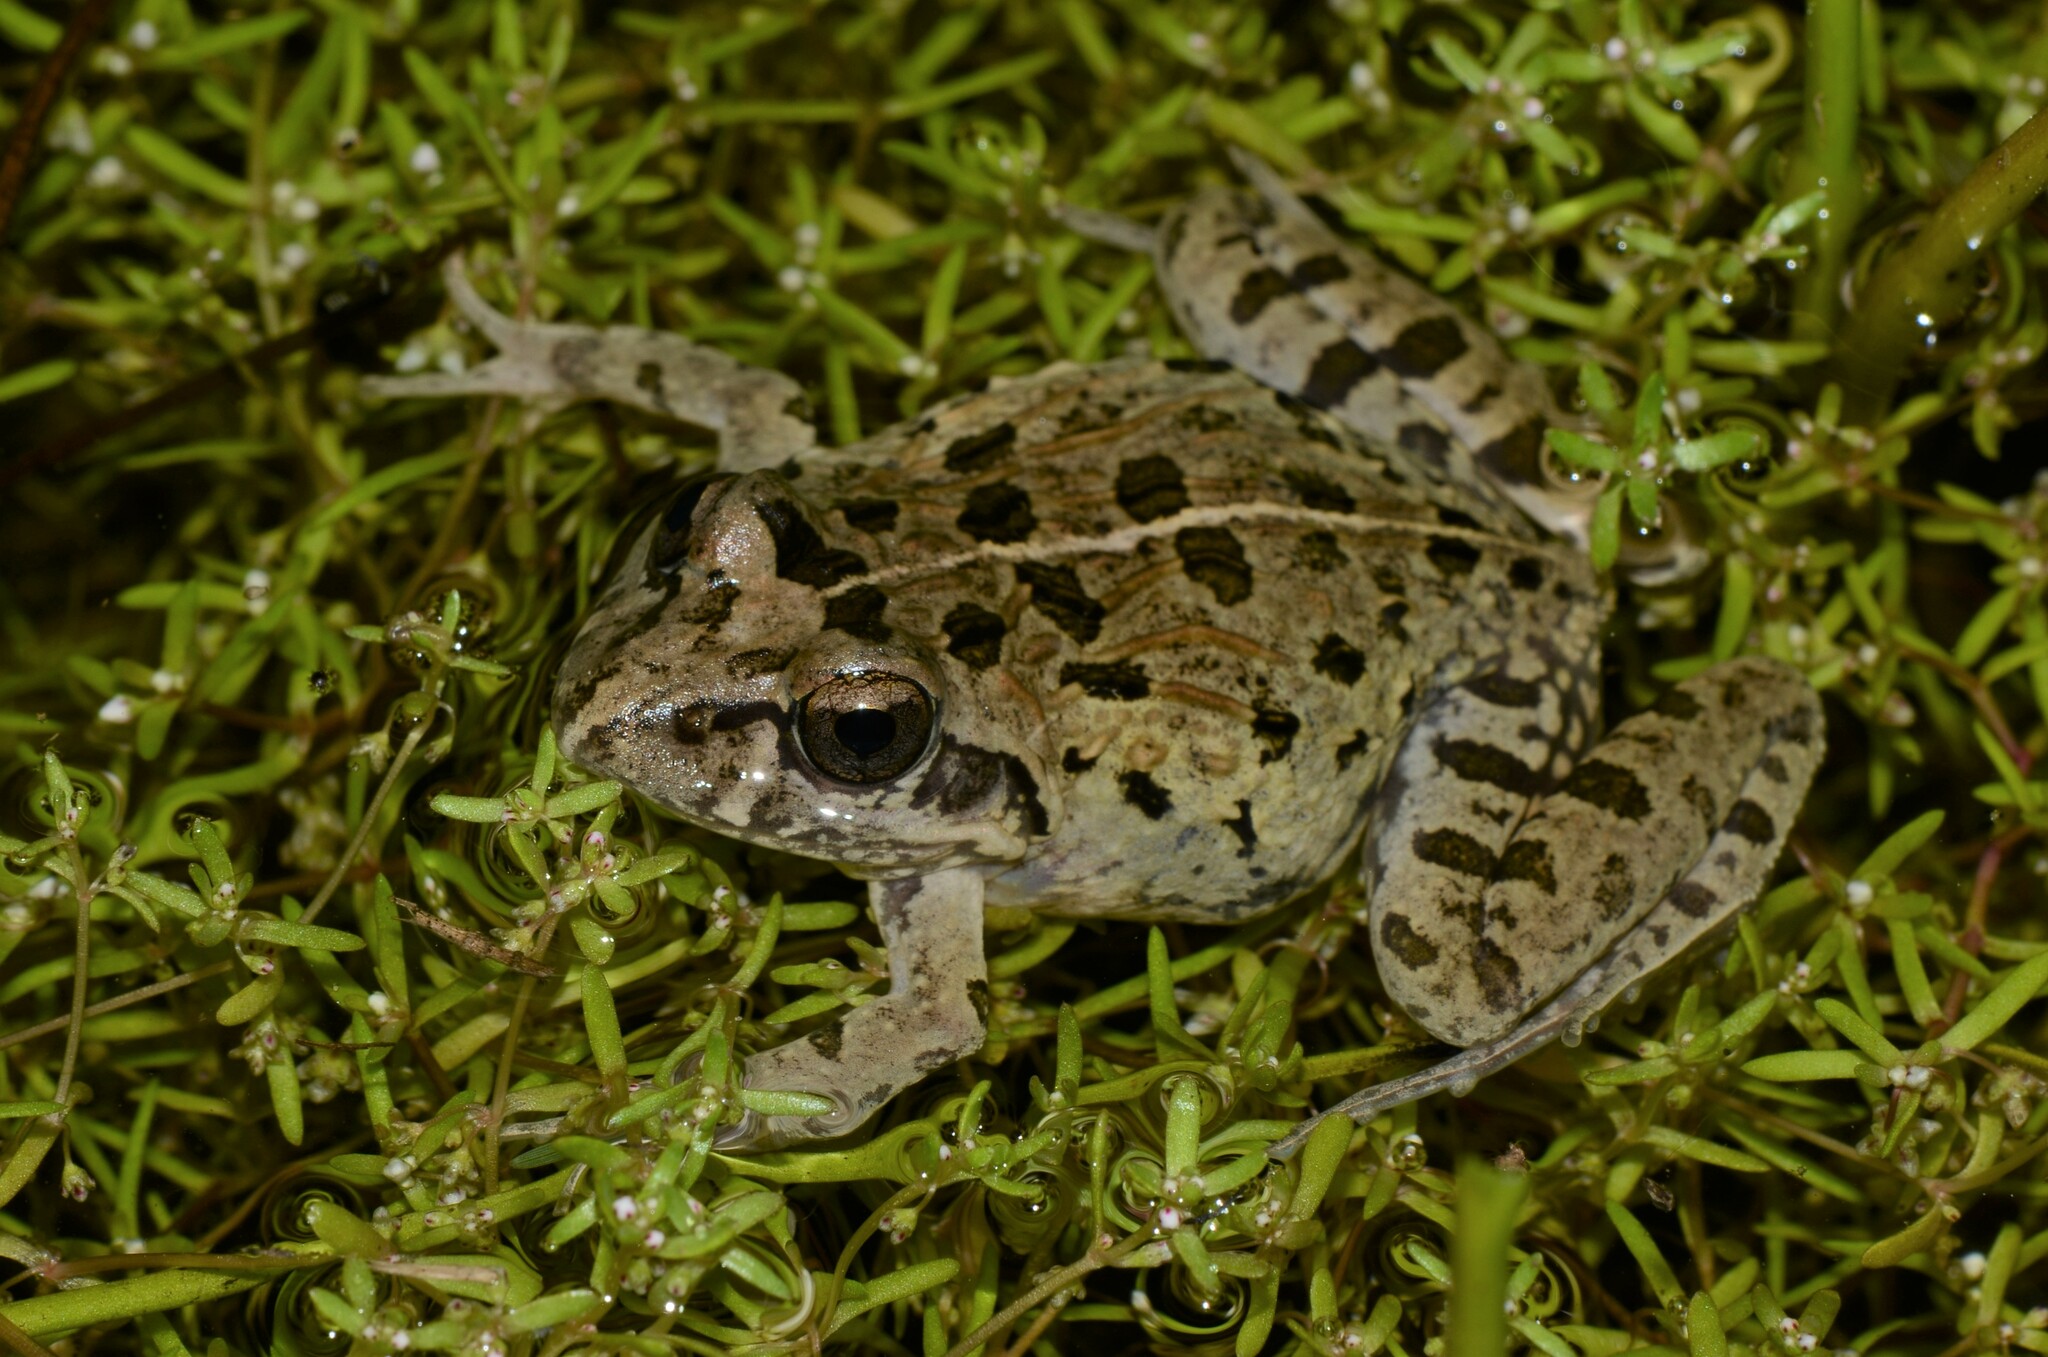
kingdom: Animalia
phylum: Chordata
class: Amphibia
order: Anura
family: Pyxicephalidae
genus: Strongylopus
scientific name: Strongylopus grayii
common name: Gray's stream frog
